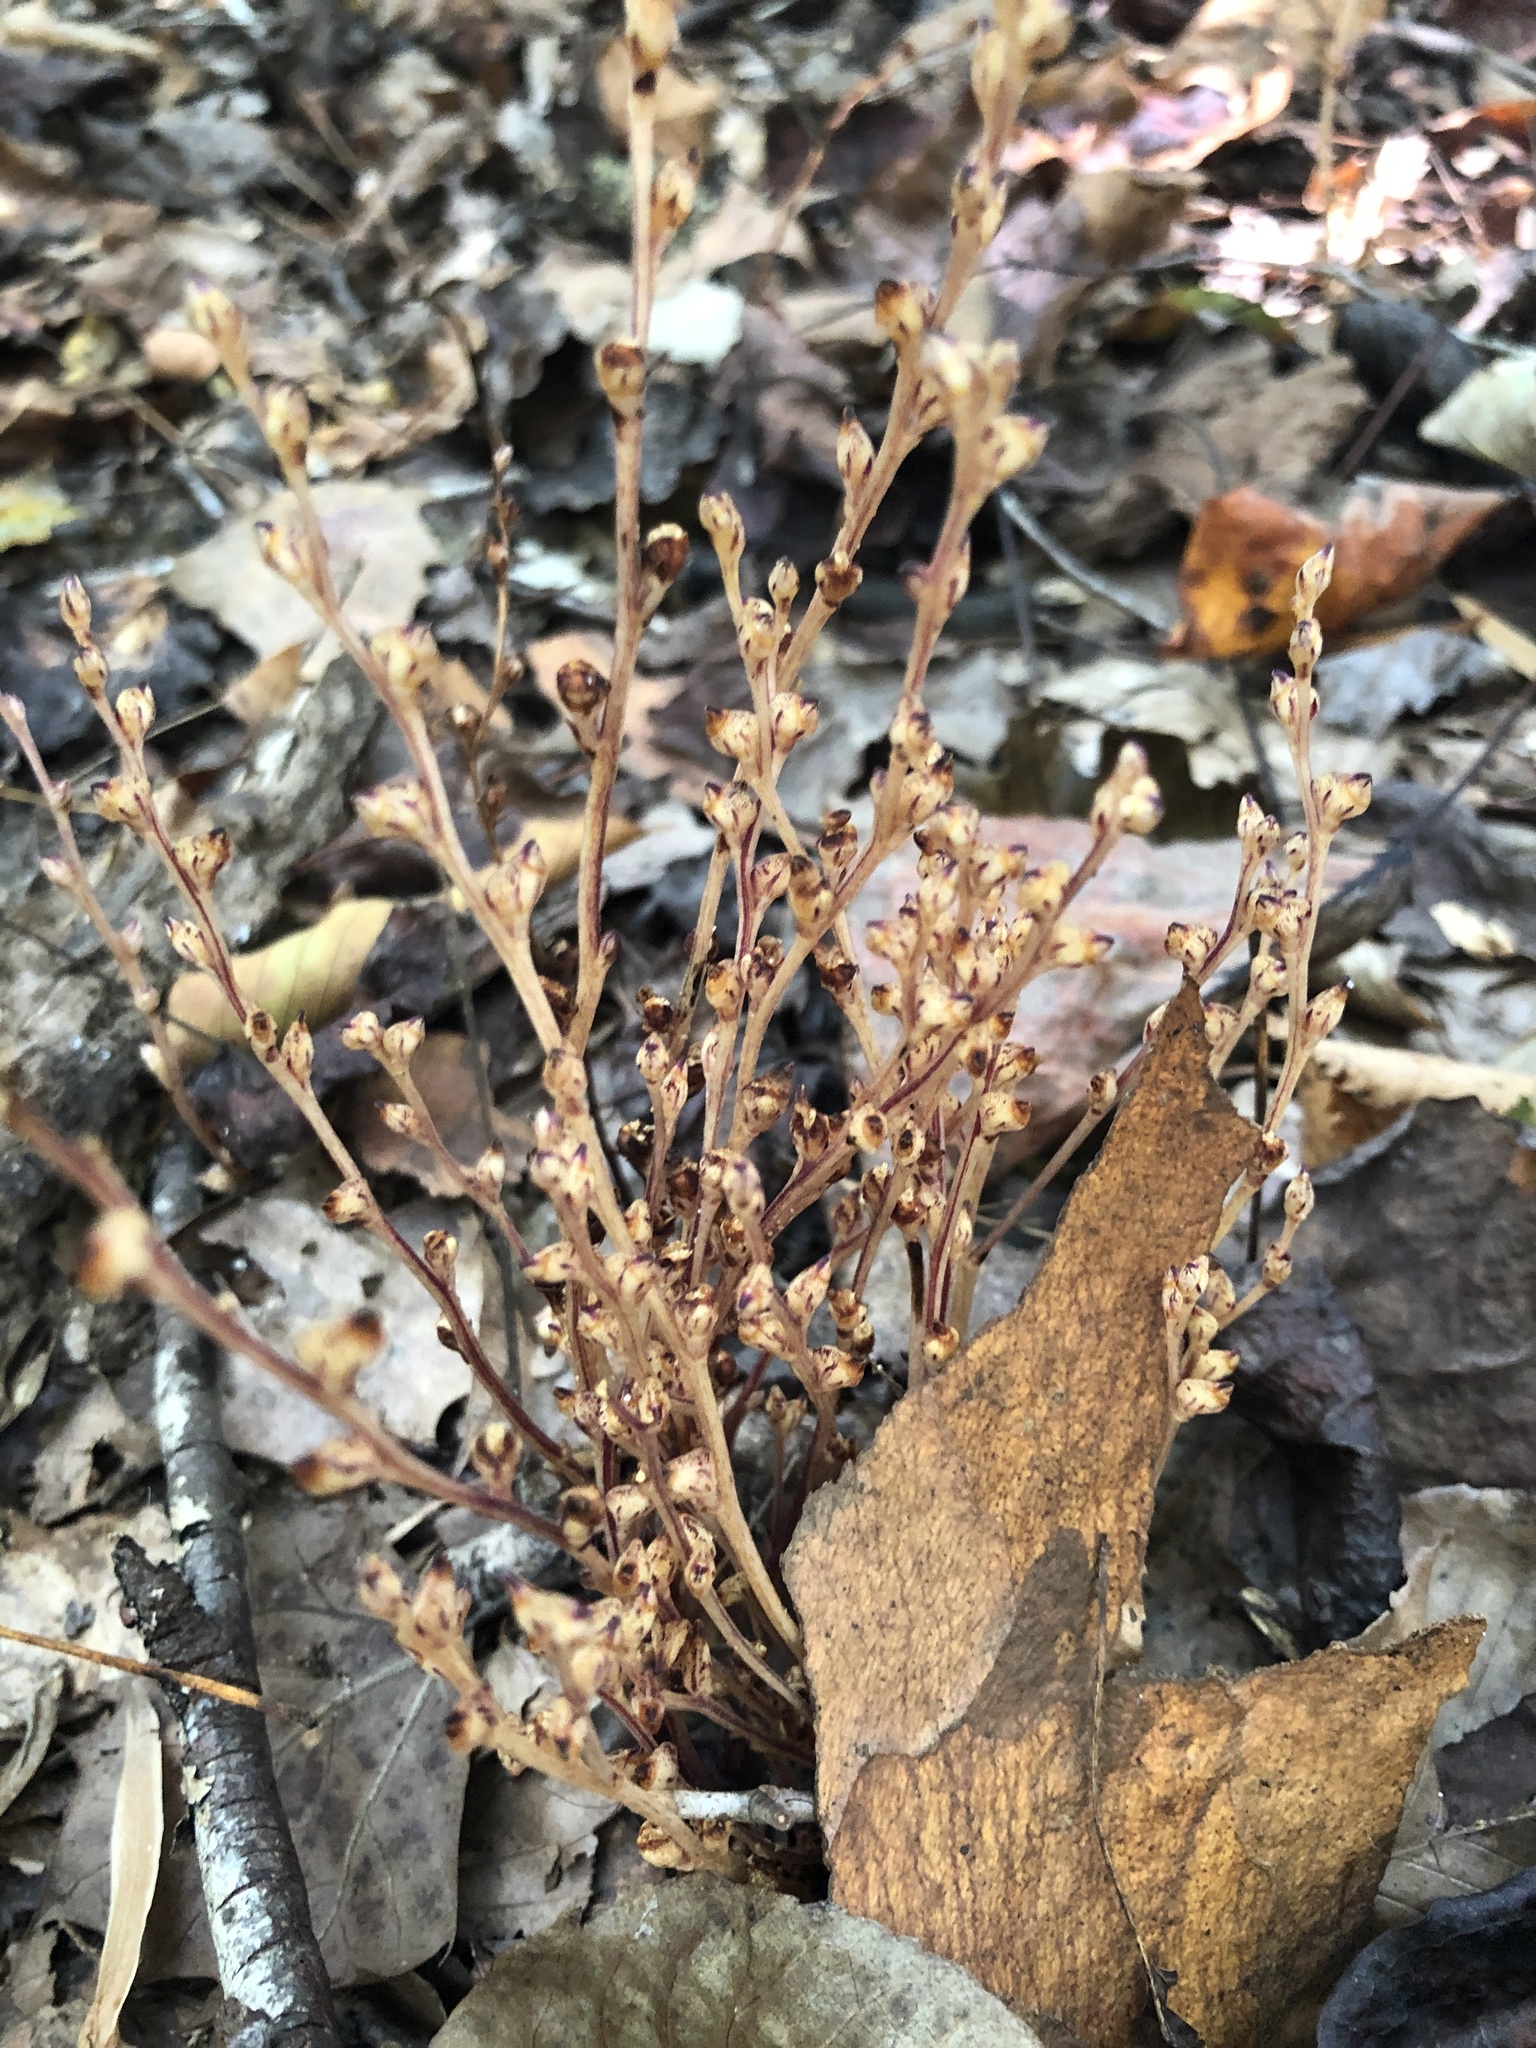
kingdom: Plantae
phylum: Tracheophyta
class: Magnoliopsida
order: Lamiales
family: Orobanchaceae
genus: Epifagus
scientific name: Epifagus virginiana
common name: Beechdrops
